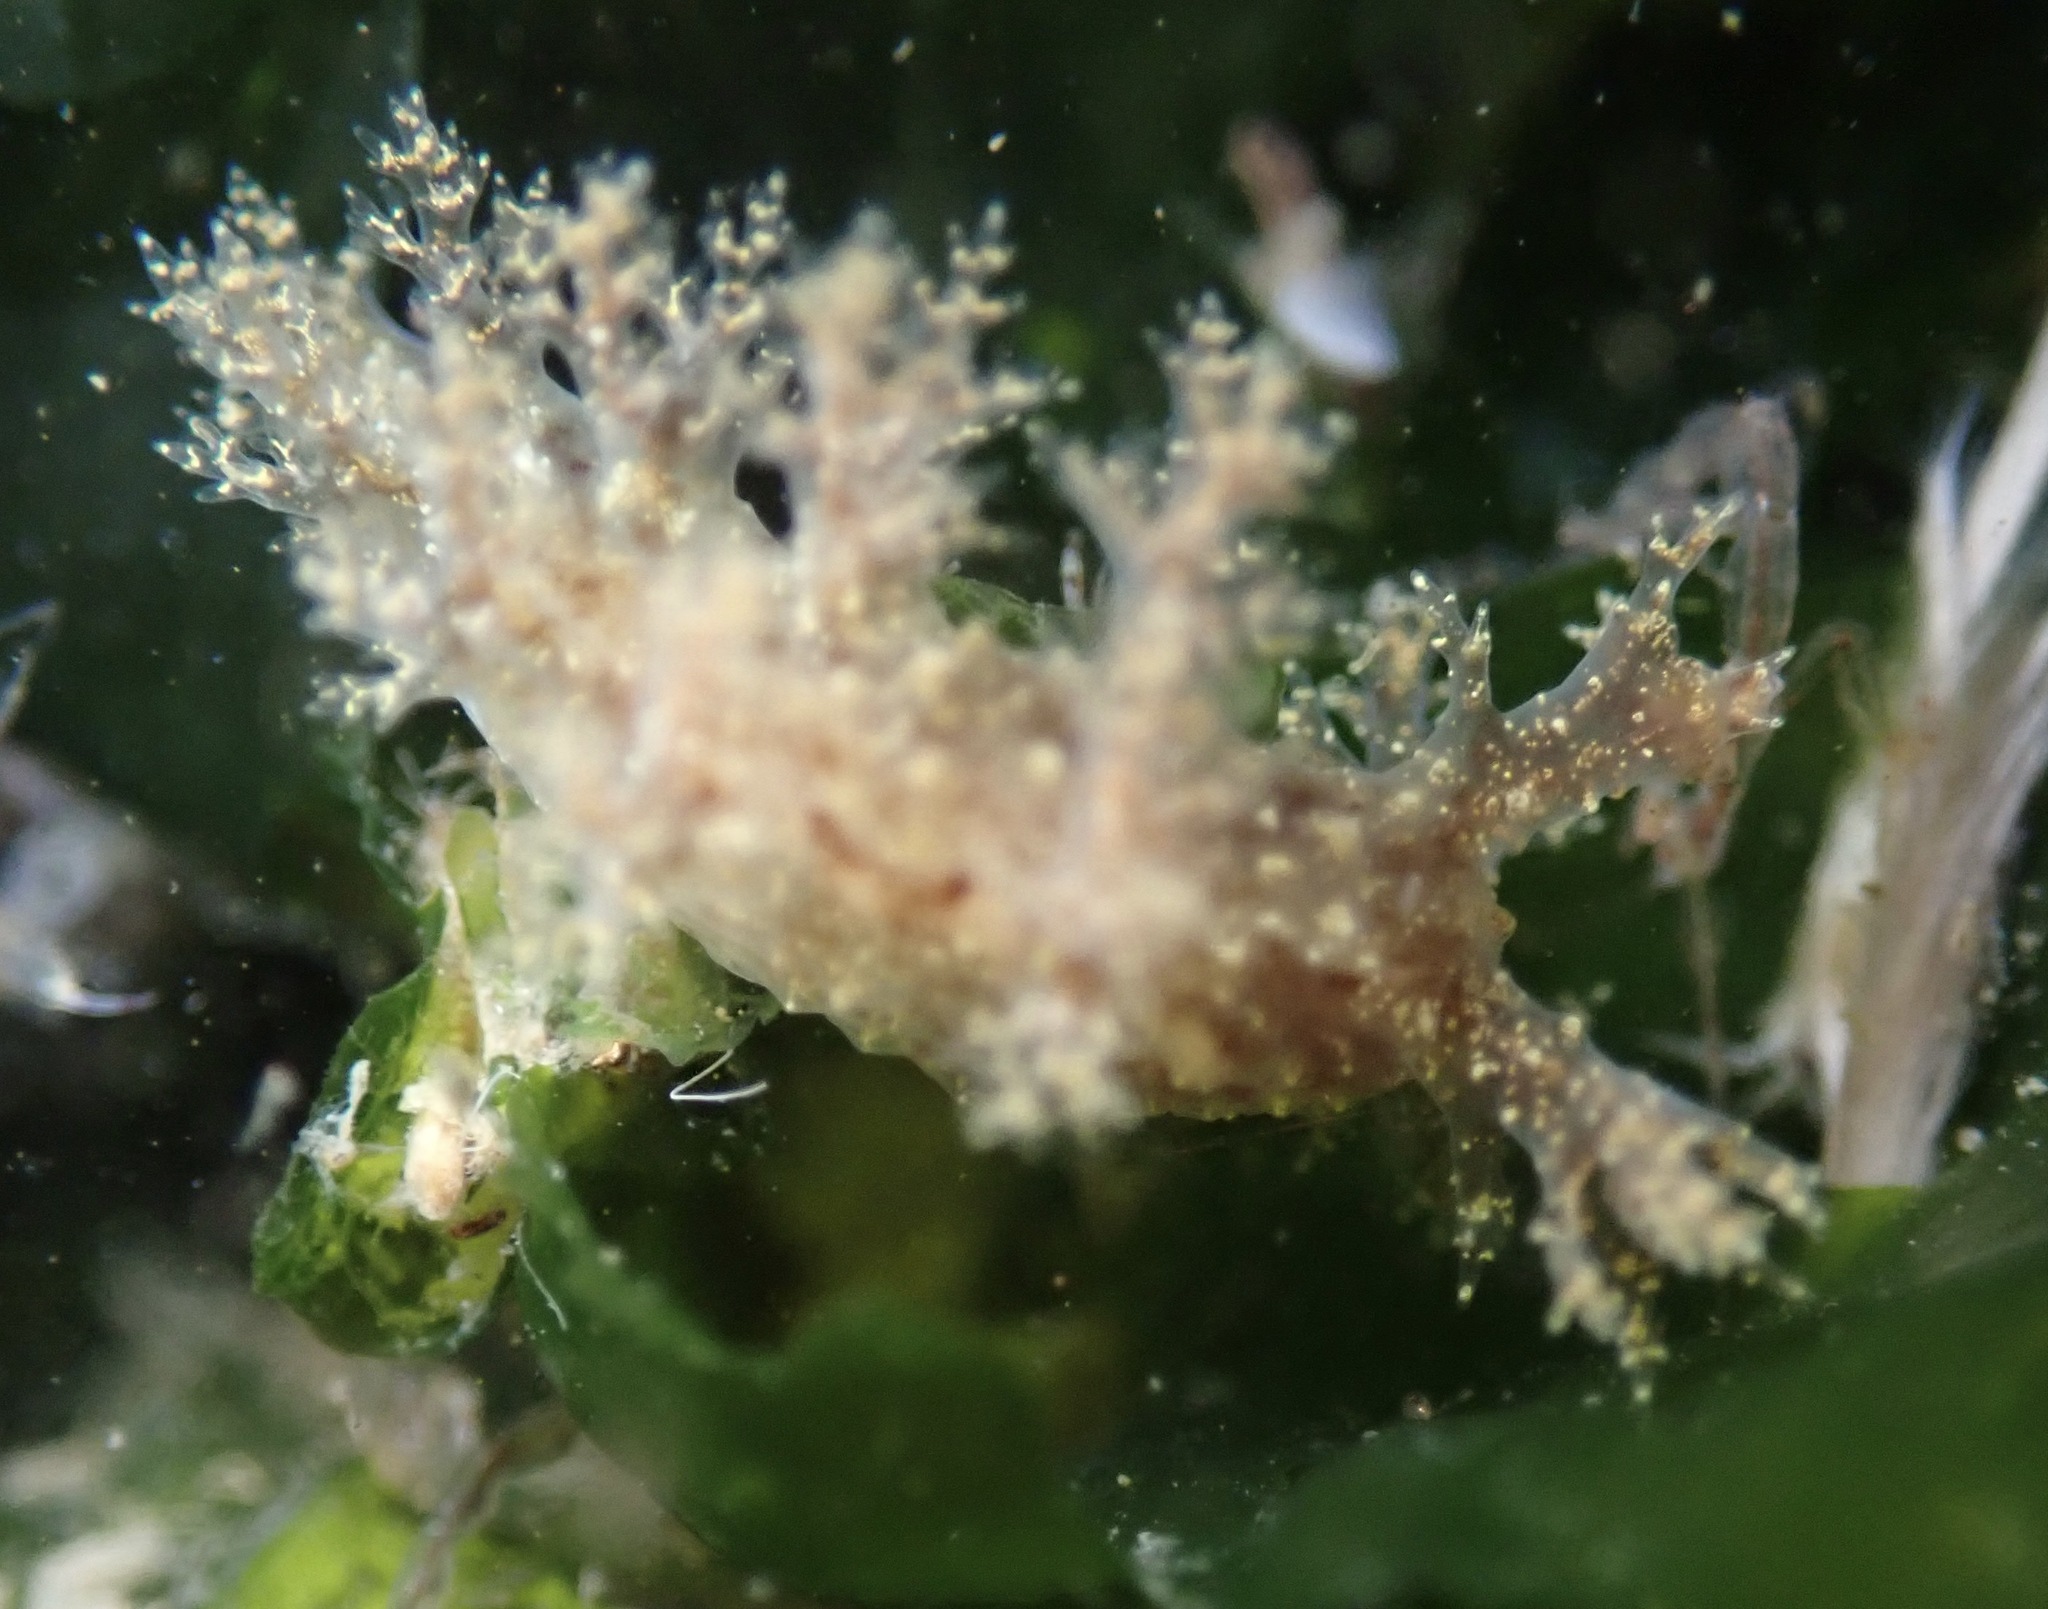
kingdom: Animalia
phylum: Mollusca
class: Gastropoda
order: Nudibranchia
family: Dendronotidae
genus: Dendronotus
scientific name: Dendronotus venustus
